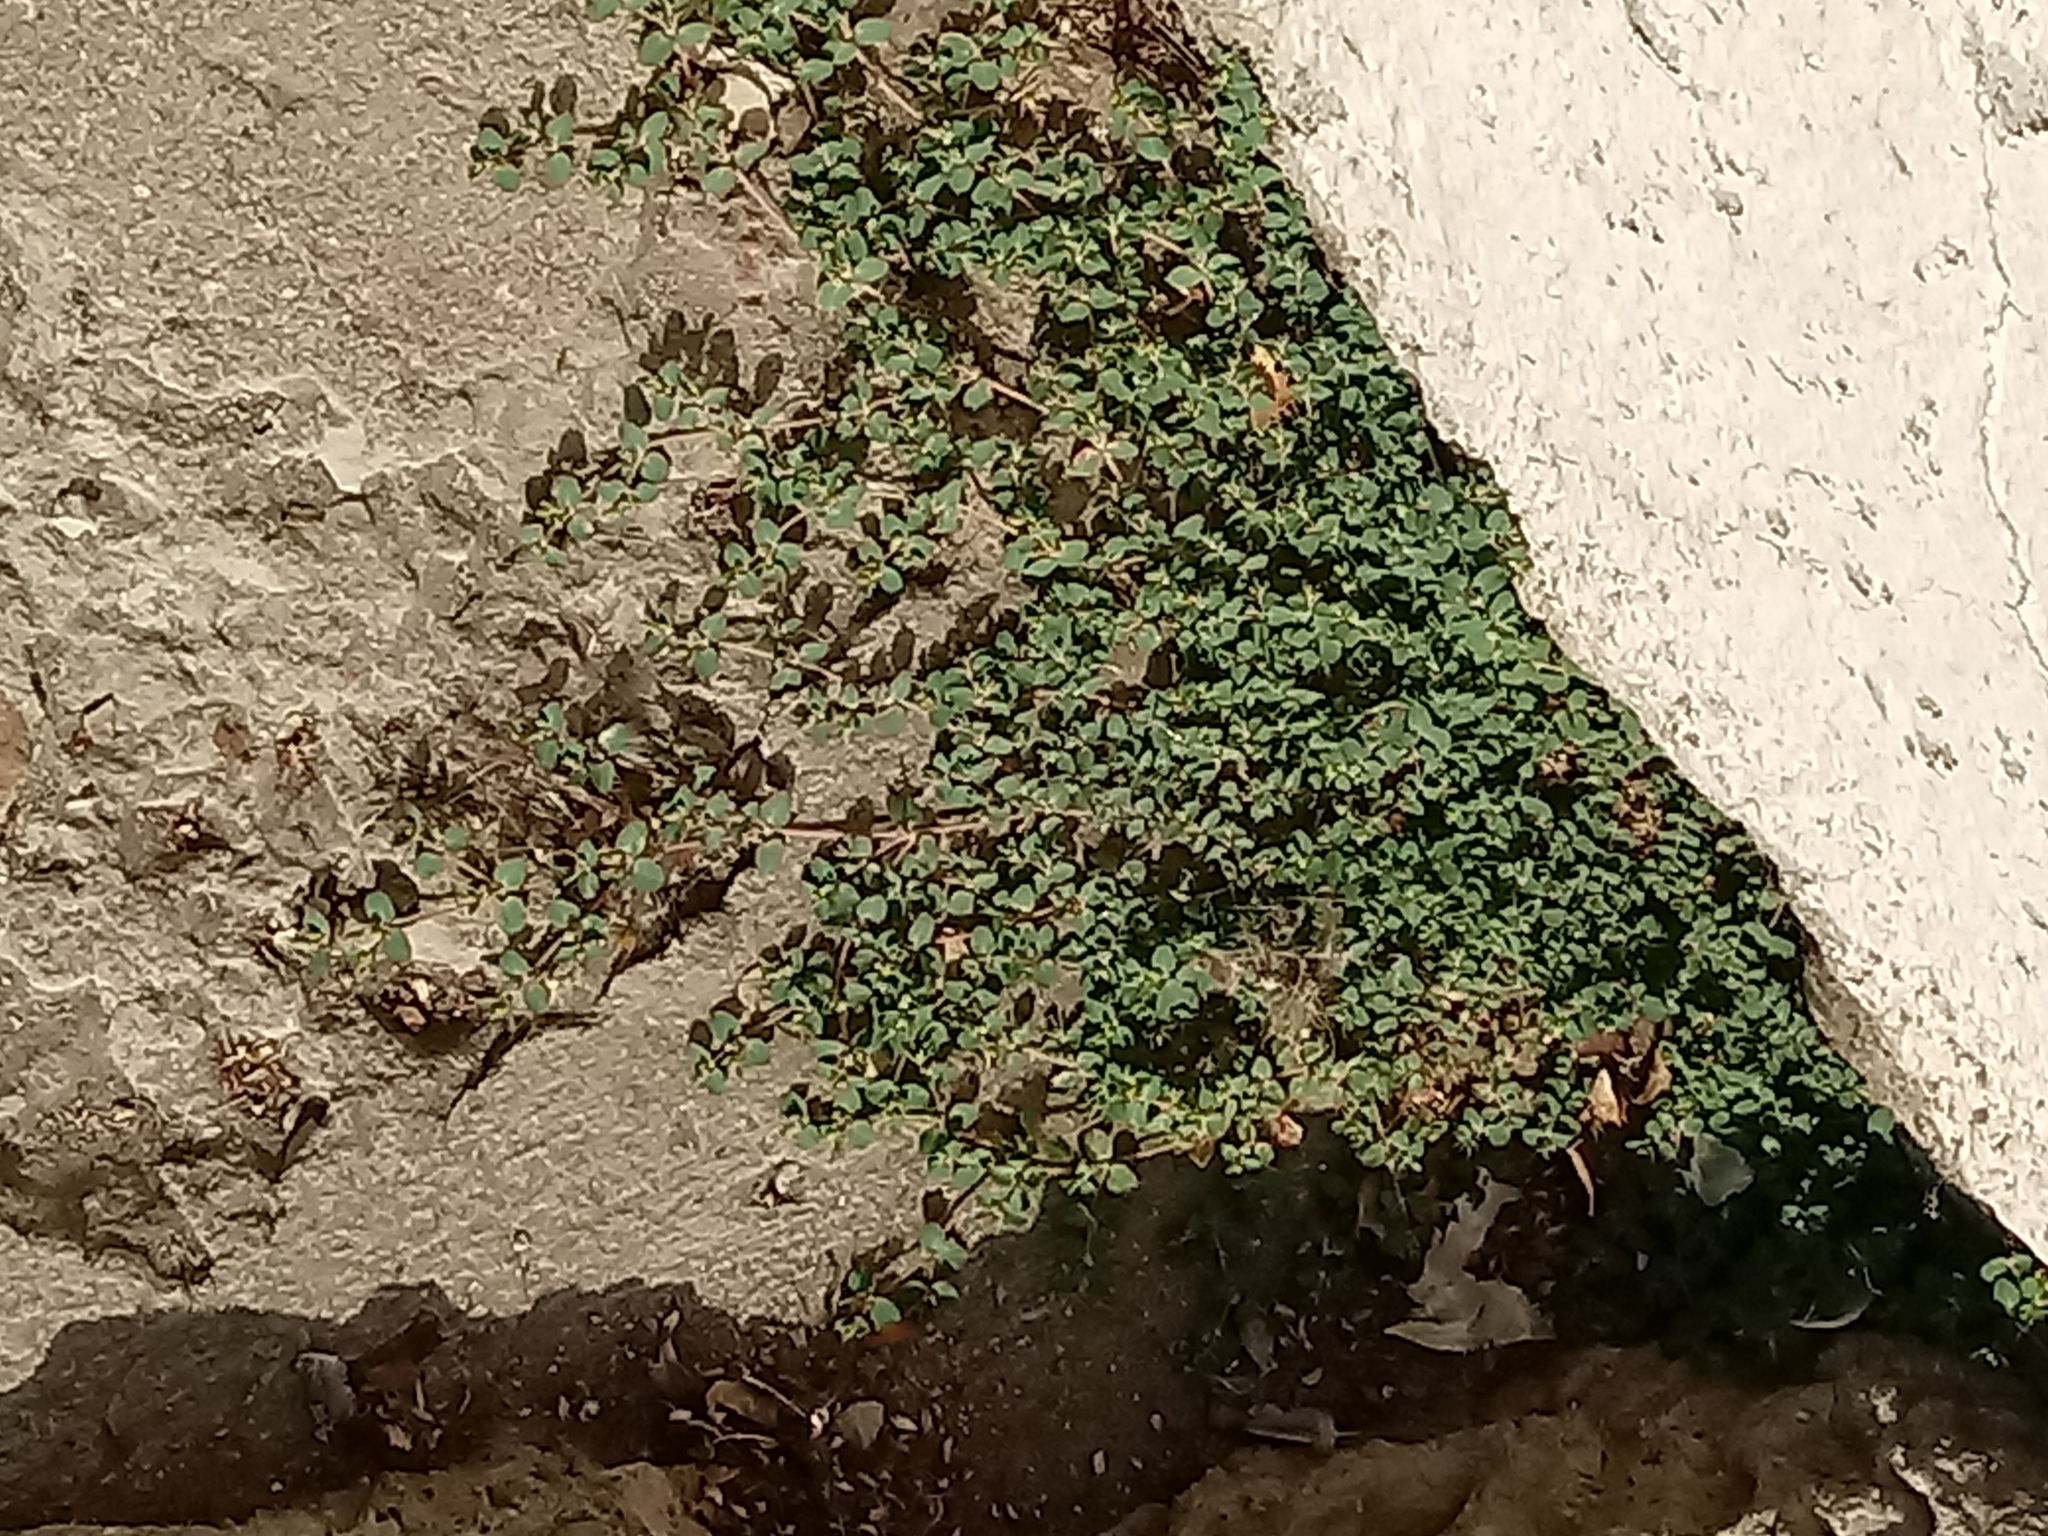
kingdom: Plantae
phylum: Tracheophyta
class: Magnoliopsida
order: Malpighiales
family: Euphorbiaceae
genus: Euphorbia
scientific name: Euphorbia serpens
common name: Matted sandmat
